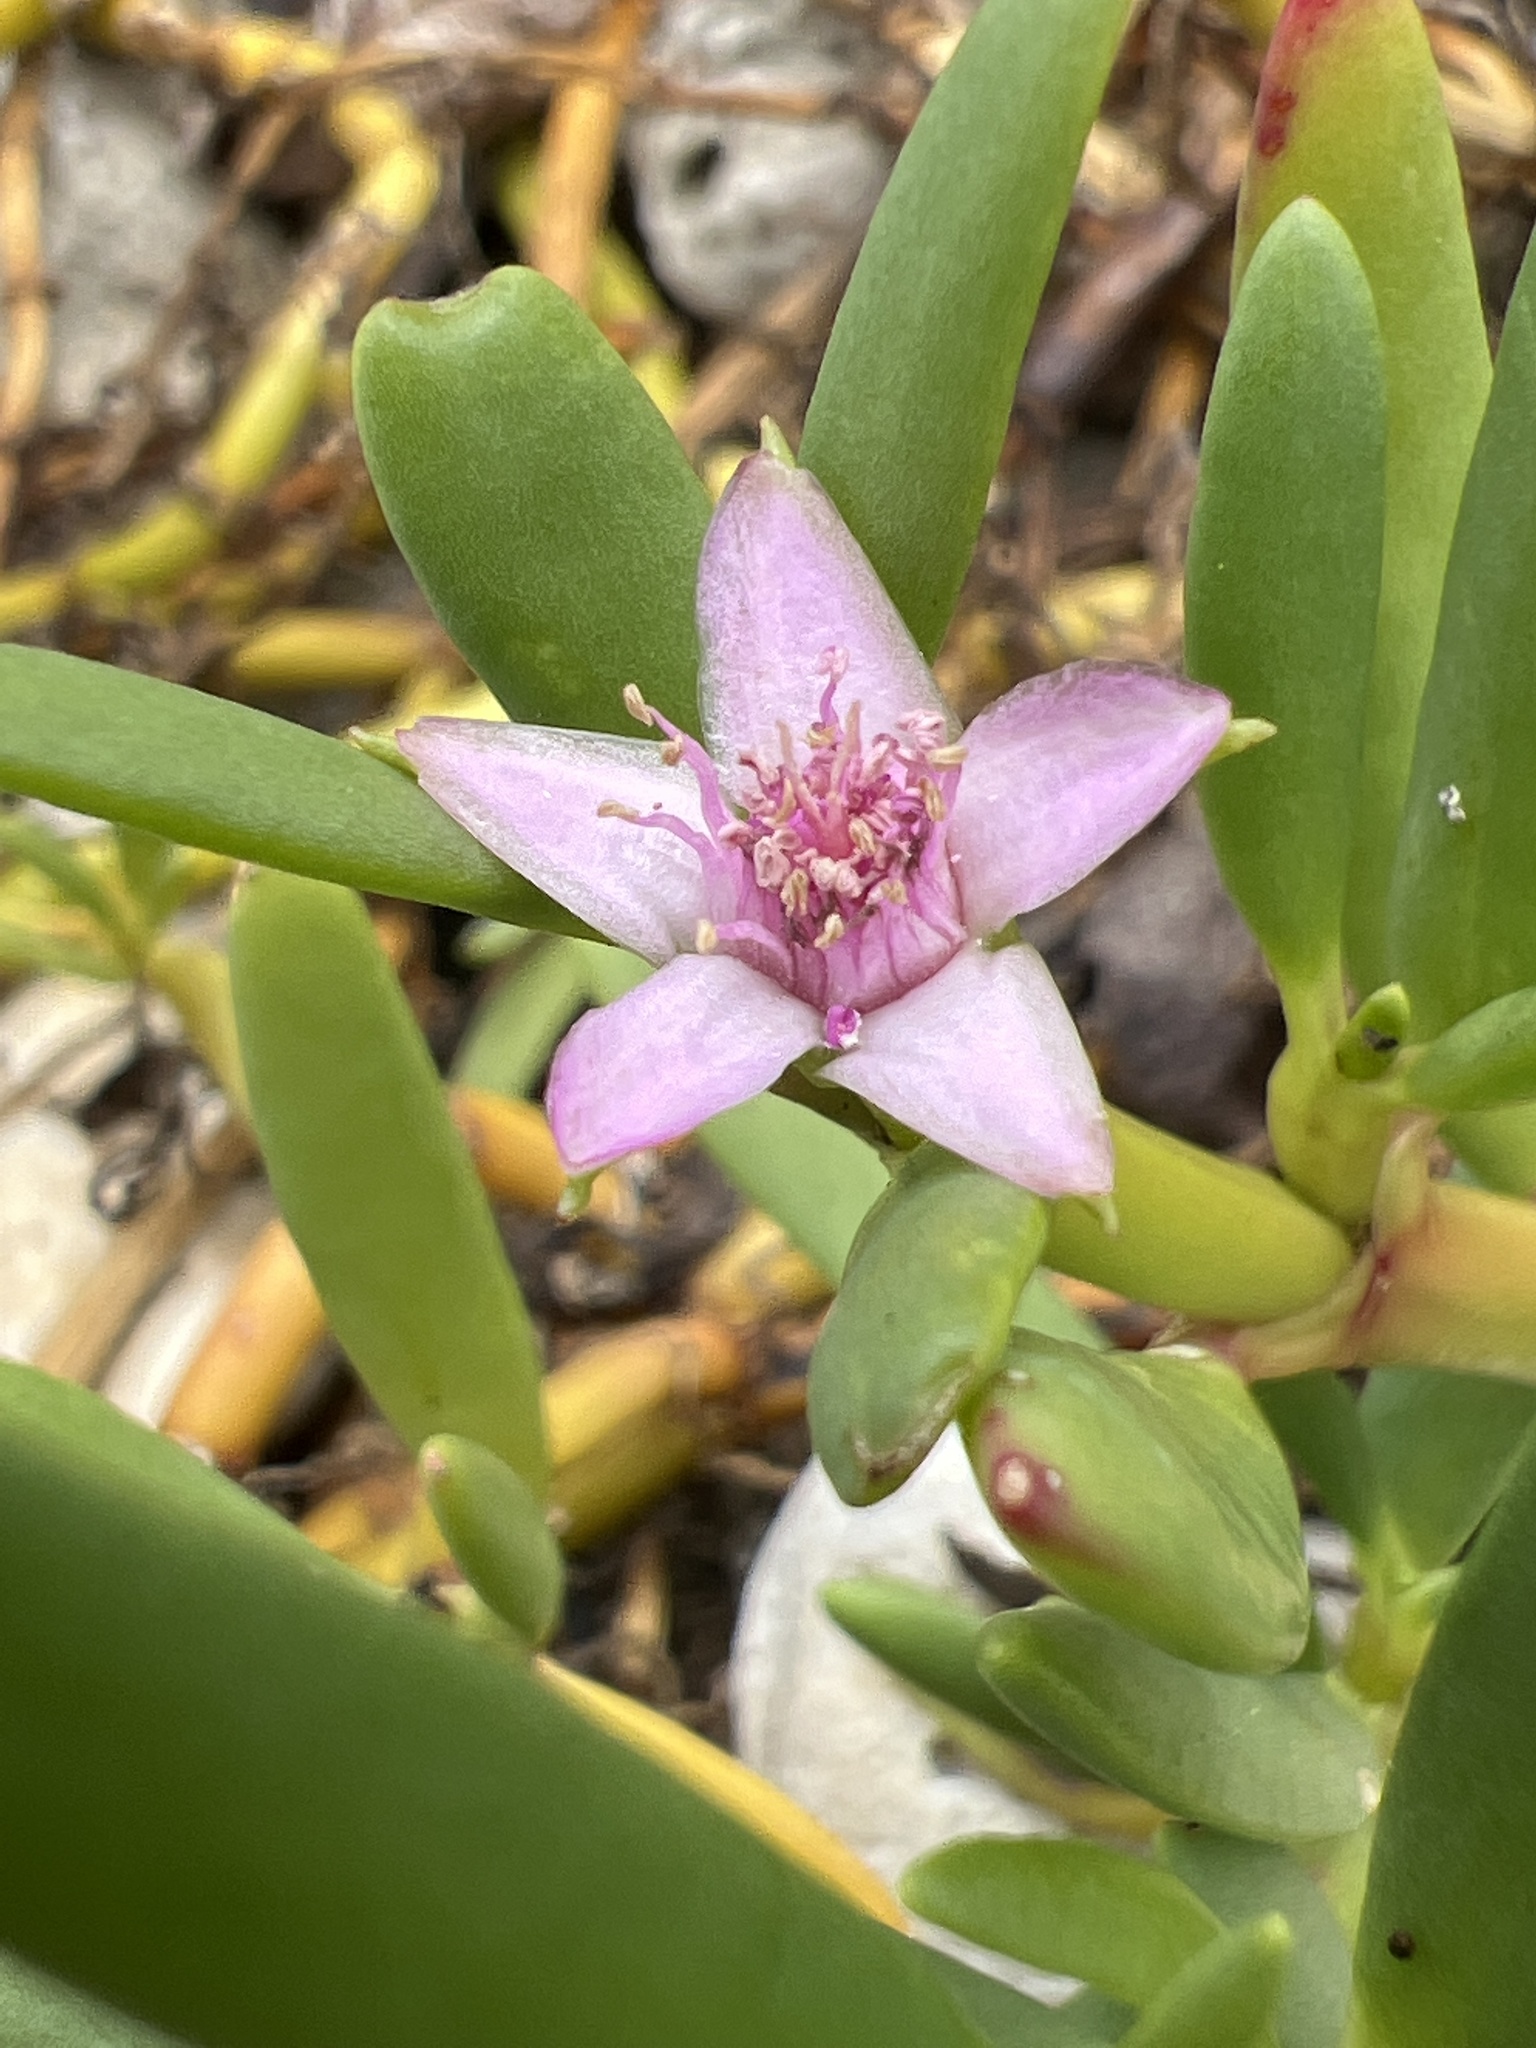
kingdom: Plantae
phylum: Tracheophyta
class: Magnoliopsida
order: Caryophyllales
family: Aizoaceae
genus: Sesuvium
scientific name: Sesuvium portulacastrum
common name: Sea-purslane
